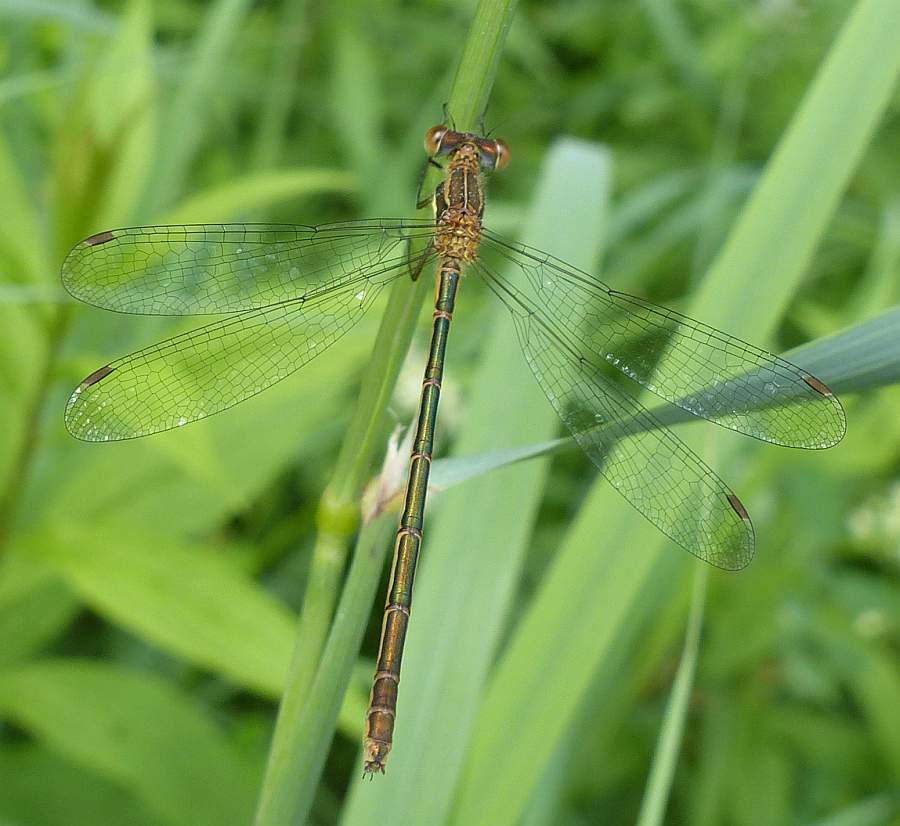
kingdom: Animalia
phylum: Arthropoda
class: Insecta
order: Odonata
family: Lestidae
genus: Lestes
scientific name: Lestes disjunctus
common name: Northern spreadwing
